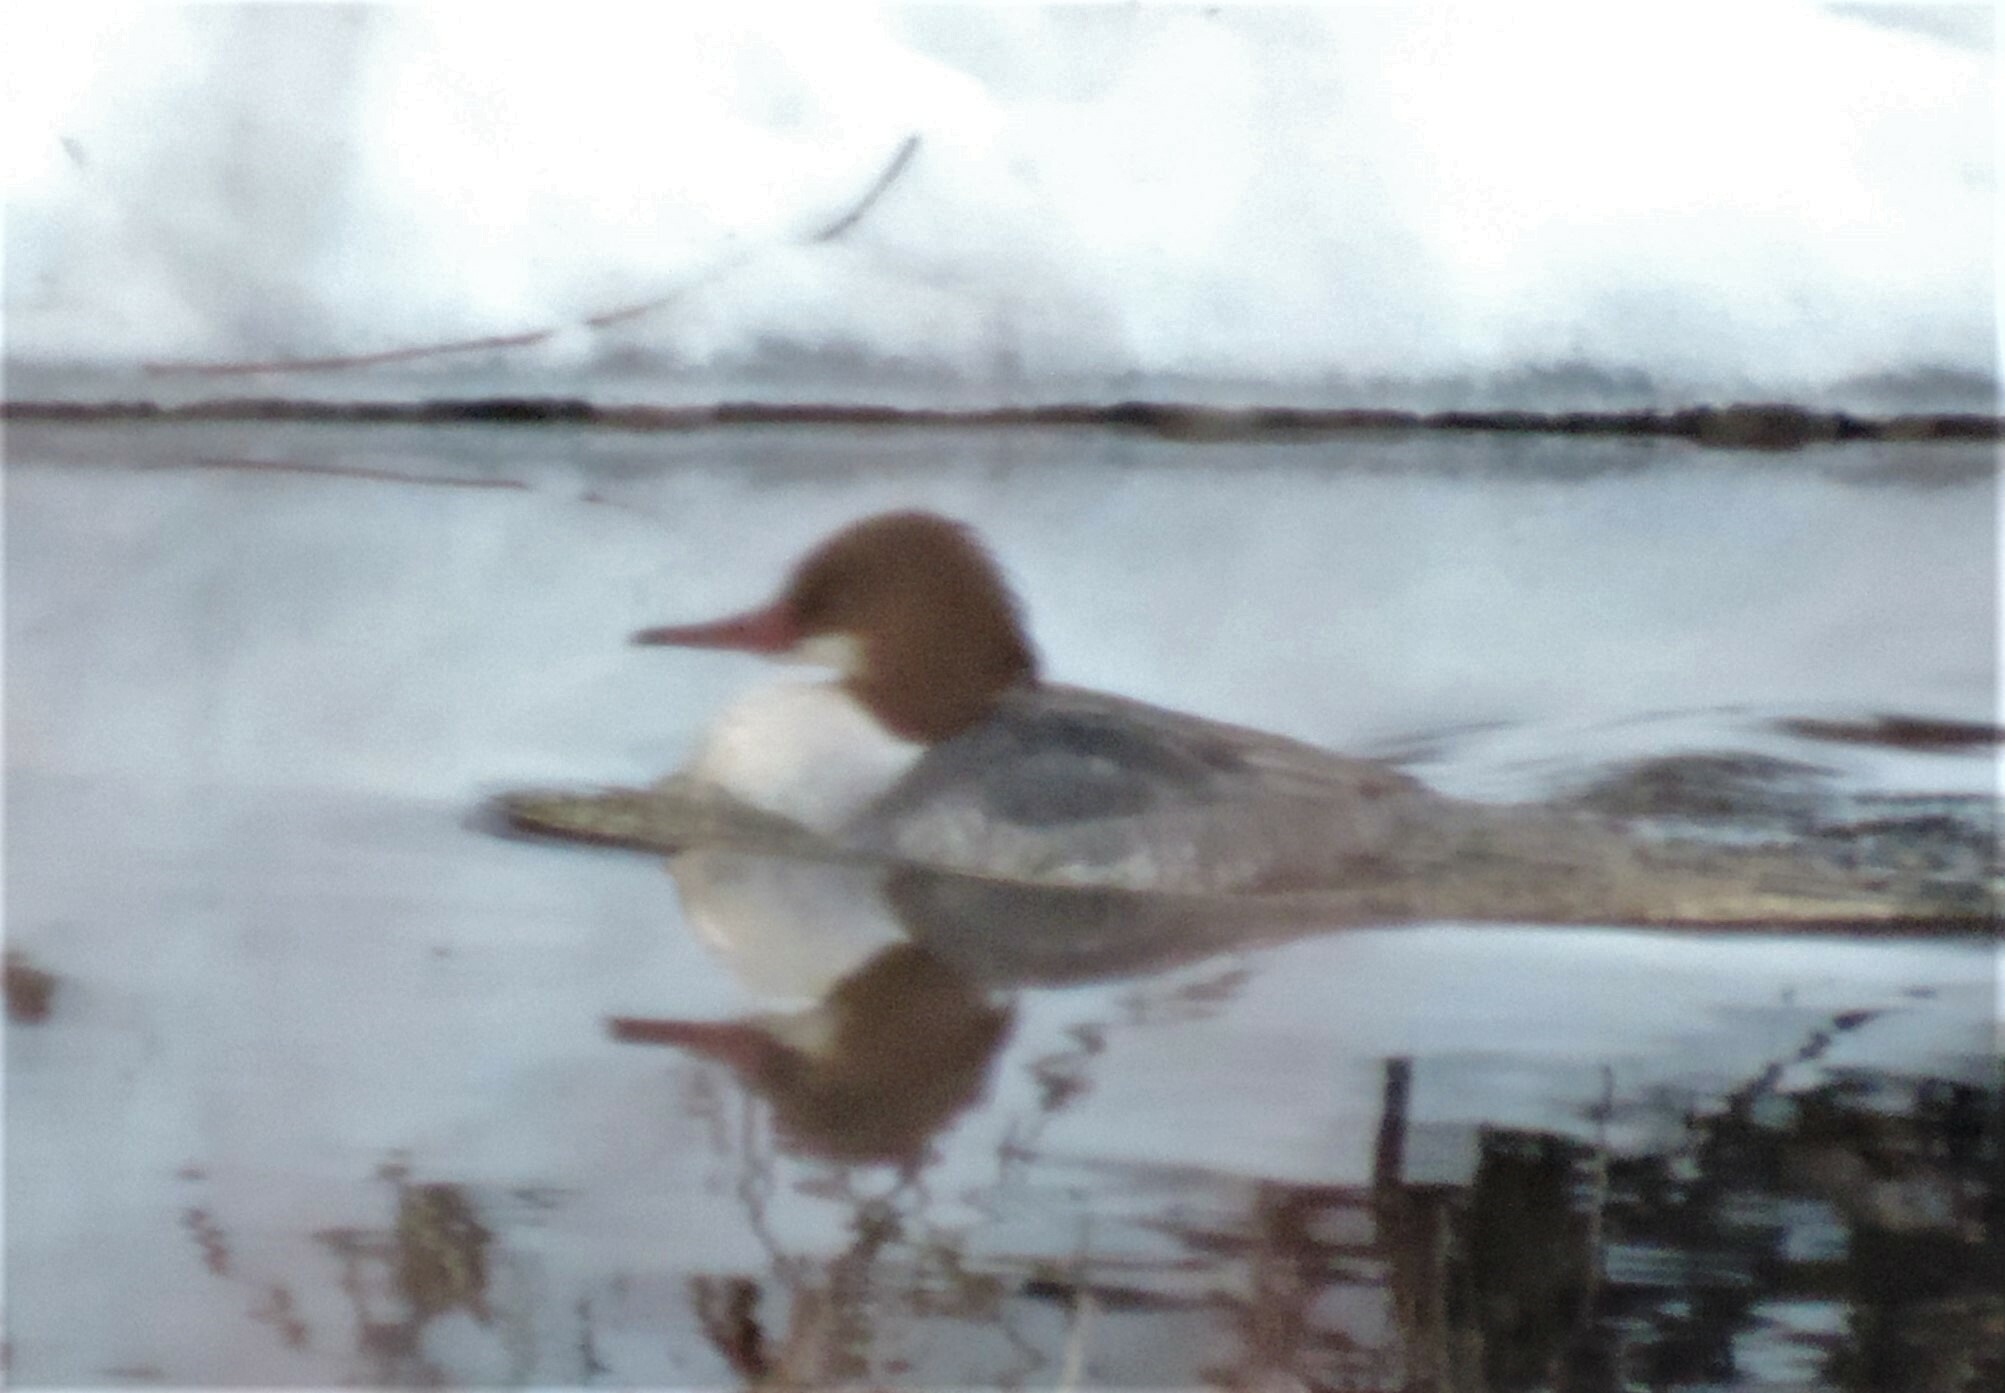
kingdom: Animalia
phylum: Chordata
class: Aves
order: Anseriformes
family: Anatidae
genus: Mergus
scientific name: Mergus merganser
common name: Common merganser
